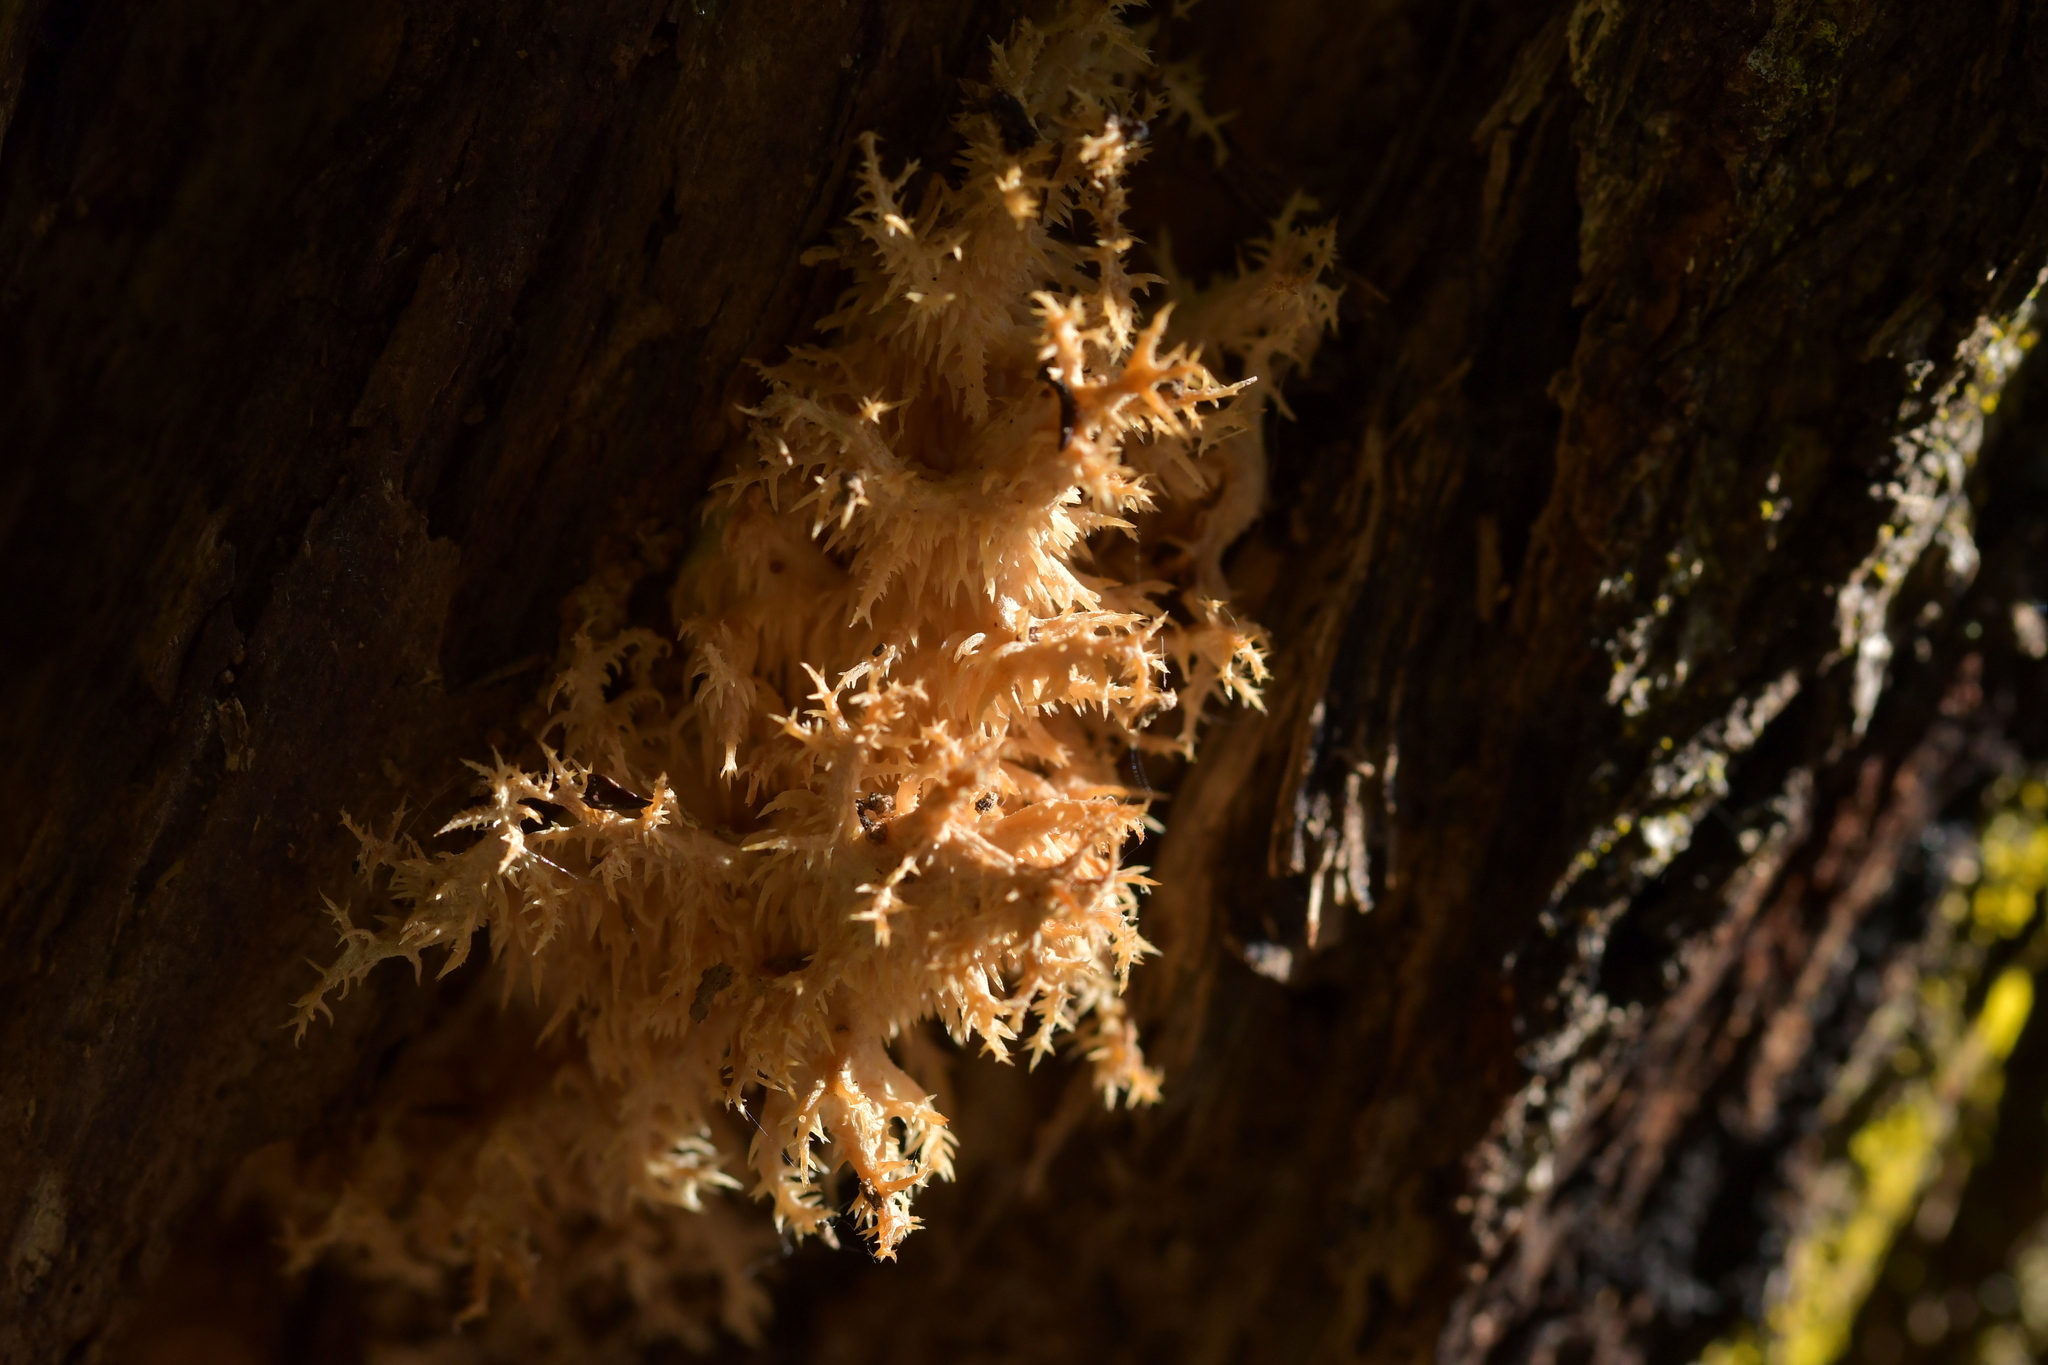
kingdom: Fungi
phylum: Basidiomycota
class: Agaricomycetes
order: Russulales
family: Hericiaceae
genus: Hericium
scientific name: Hericium novae-zealandiae
